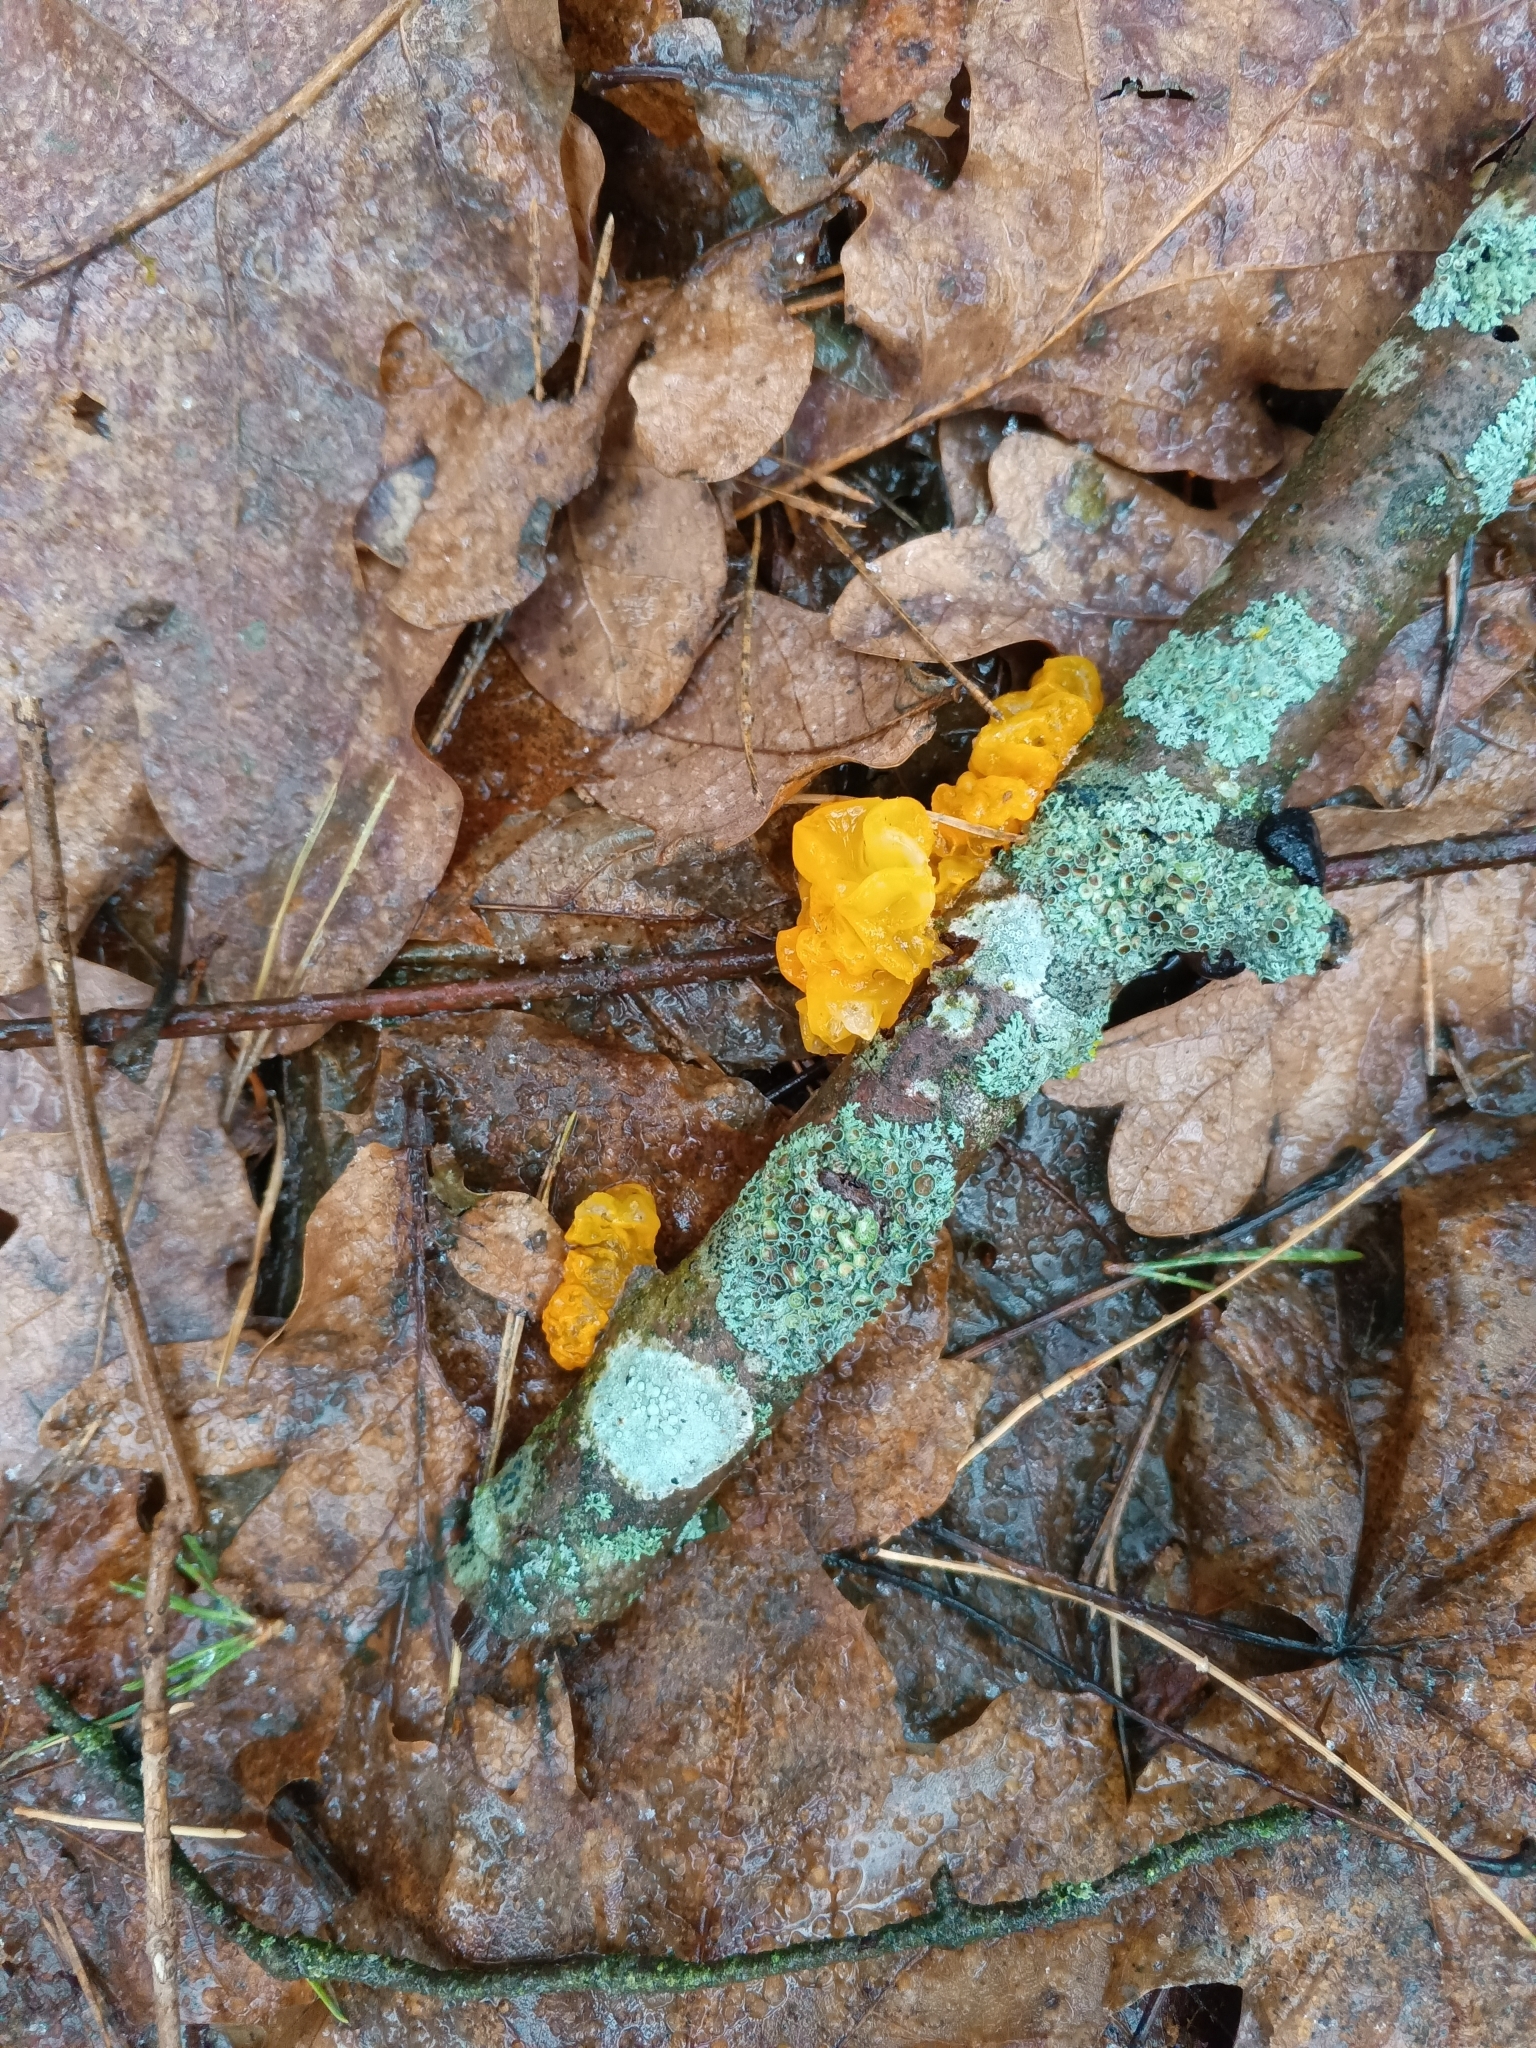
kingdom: Fungi
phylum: Basidiomycota
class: Tremellomycetes
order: Tremellales
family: Tremellaceae
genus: Tremella
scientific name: Tremella mesenterica
